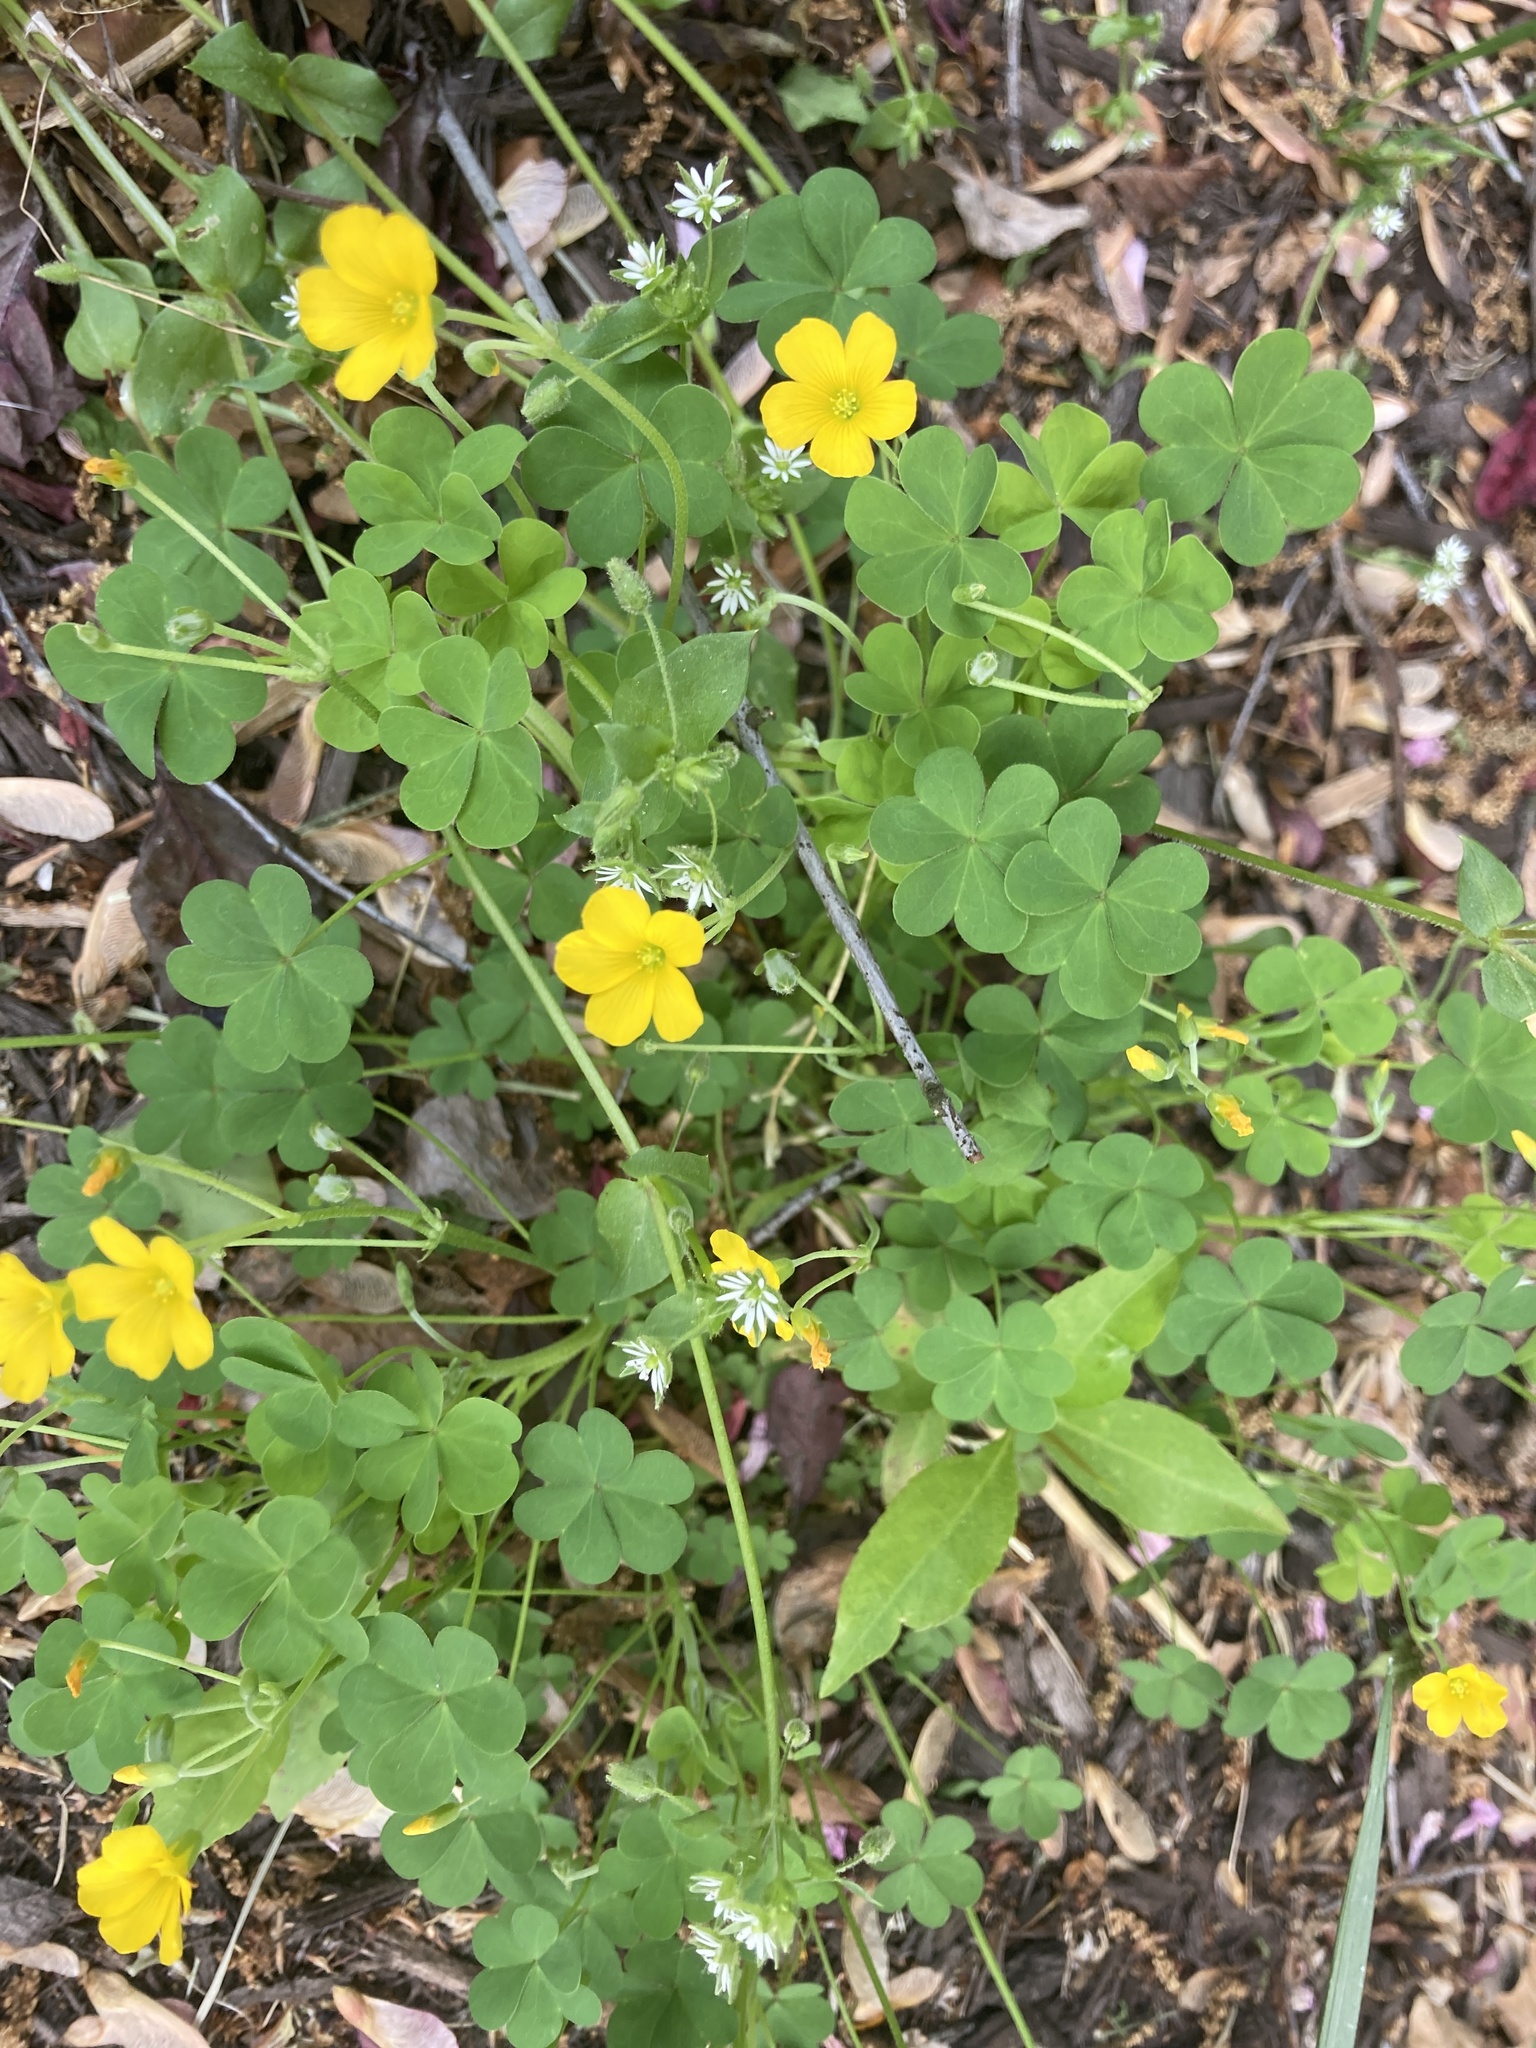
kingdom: Plantae
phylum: Tracheophyta
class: Magnoliopsida
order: Oxalidales
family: Oxalidaceae
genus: Oxalis
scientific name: Oxalis dillenii
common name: Sussex yellow-sorrel
